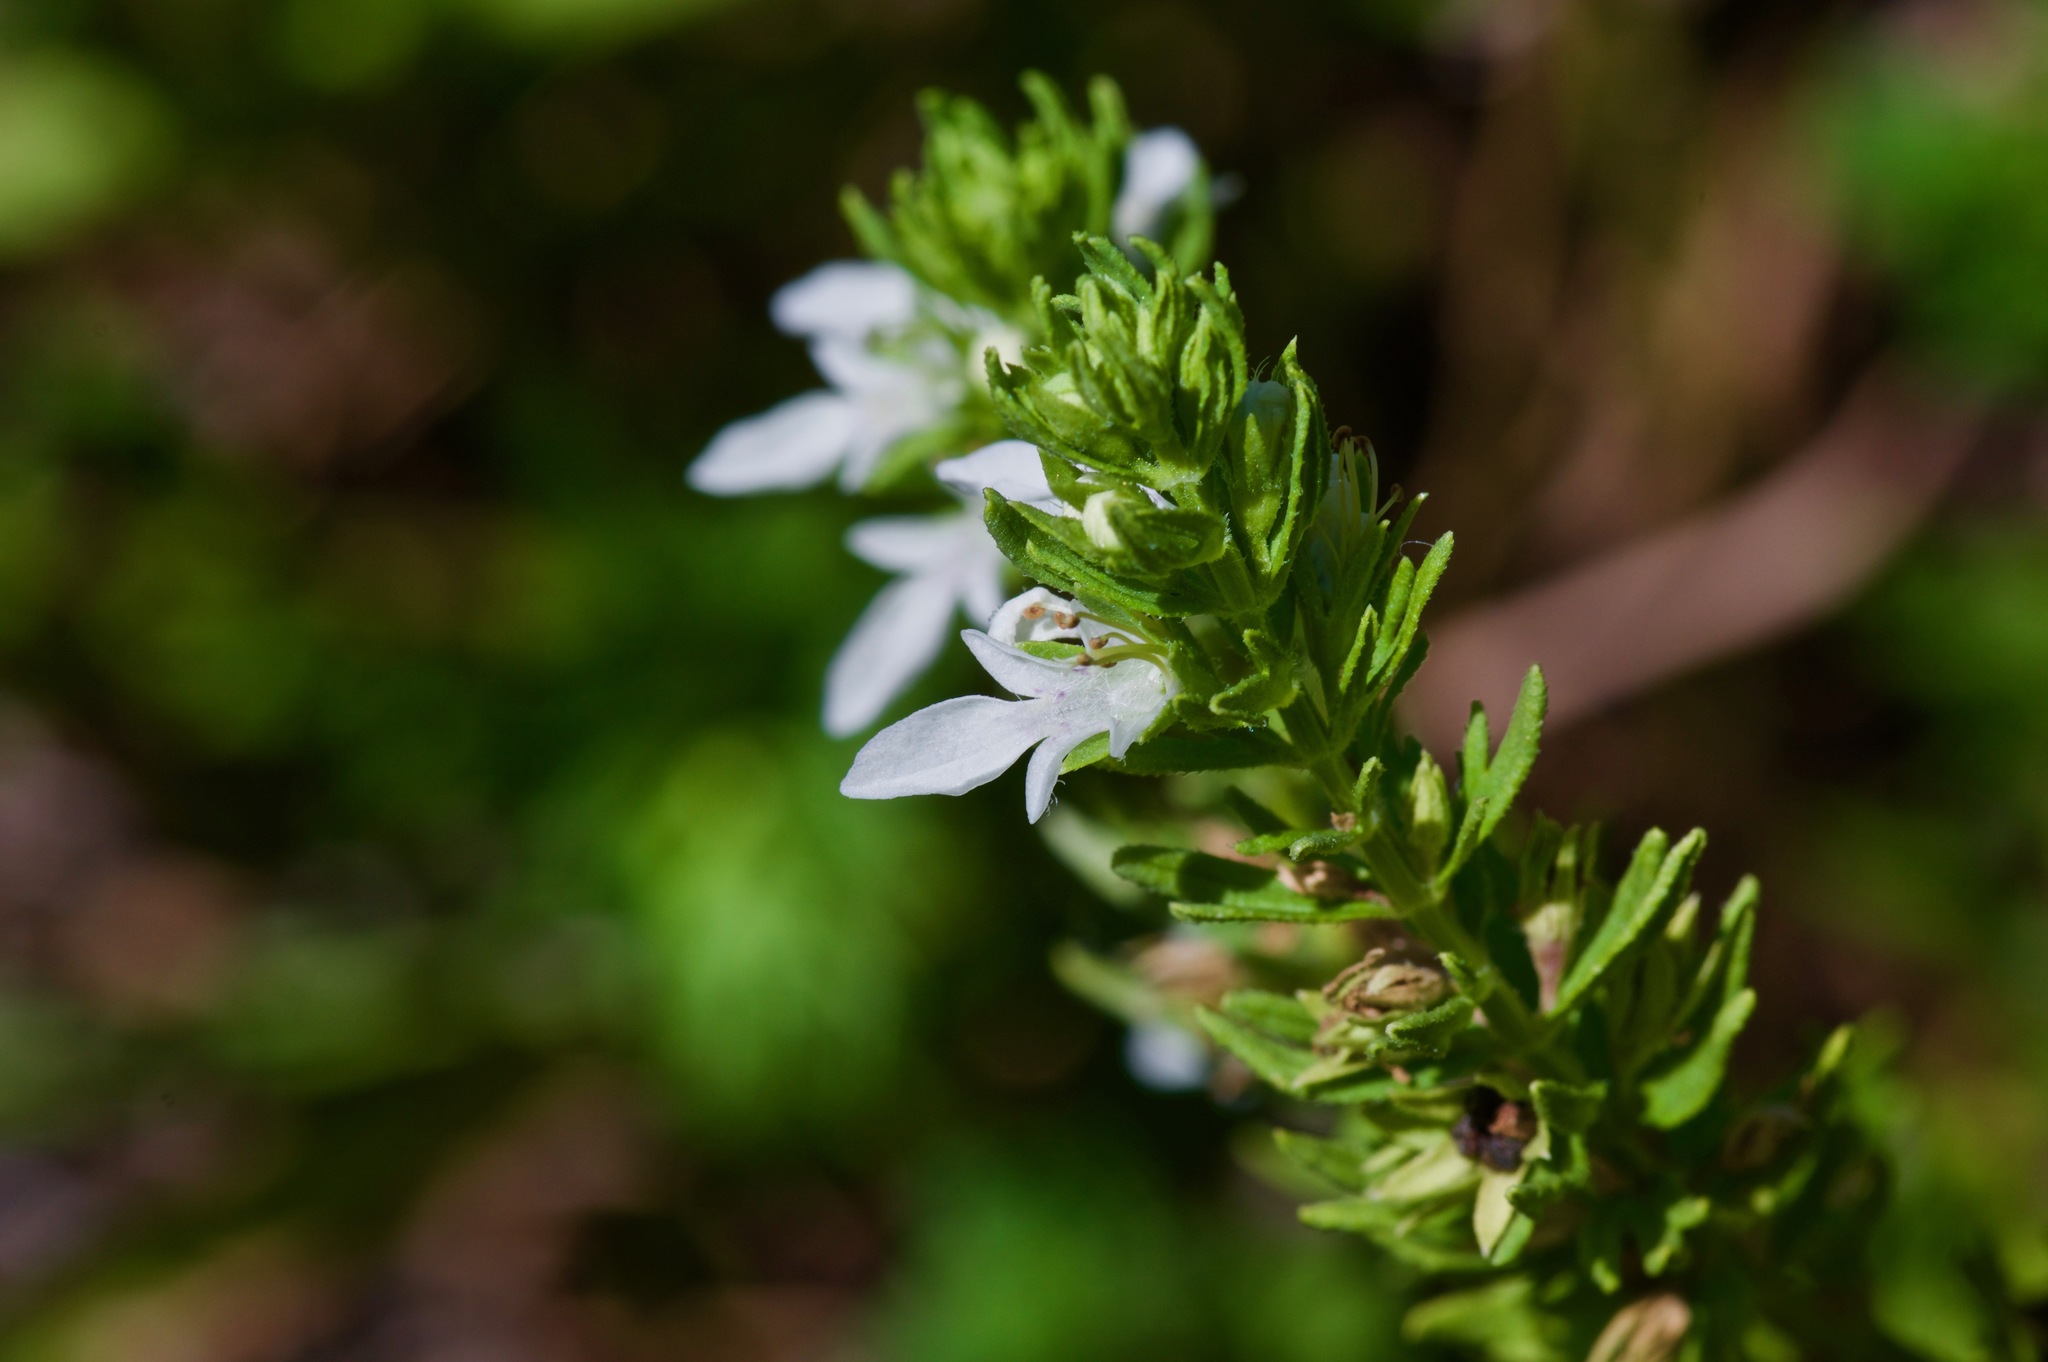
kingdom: Plantae
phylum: Tracheophyta
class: Magnoliopsida
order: Lamiales
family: Lamiaceae
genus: Teucrium
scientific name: Teucrium cubense
